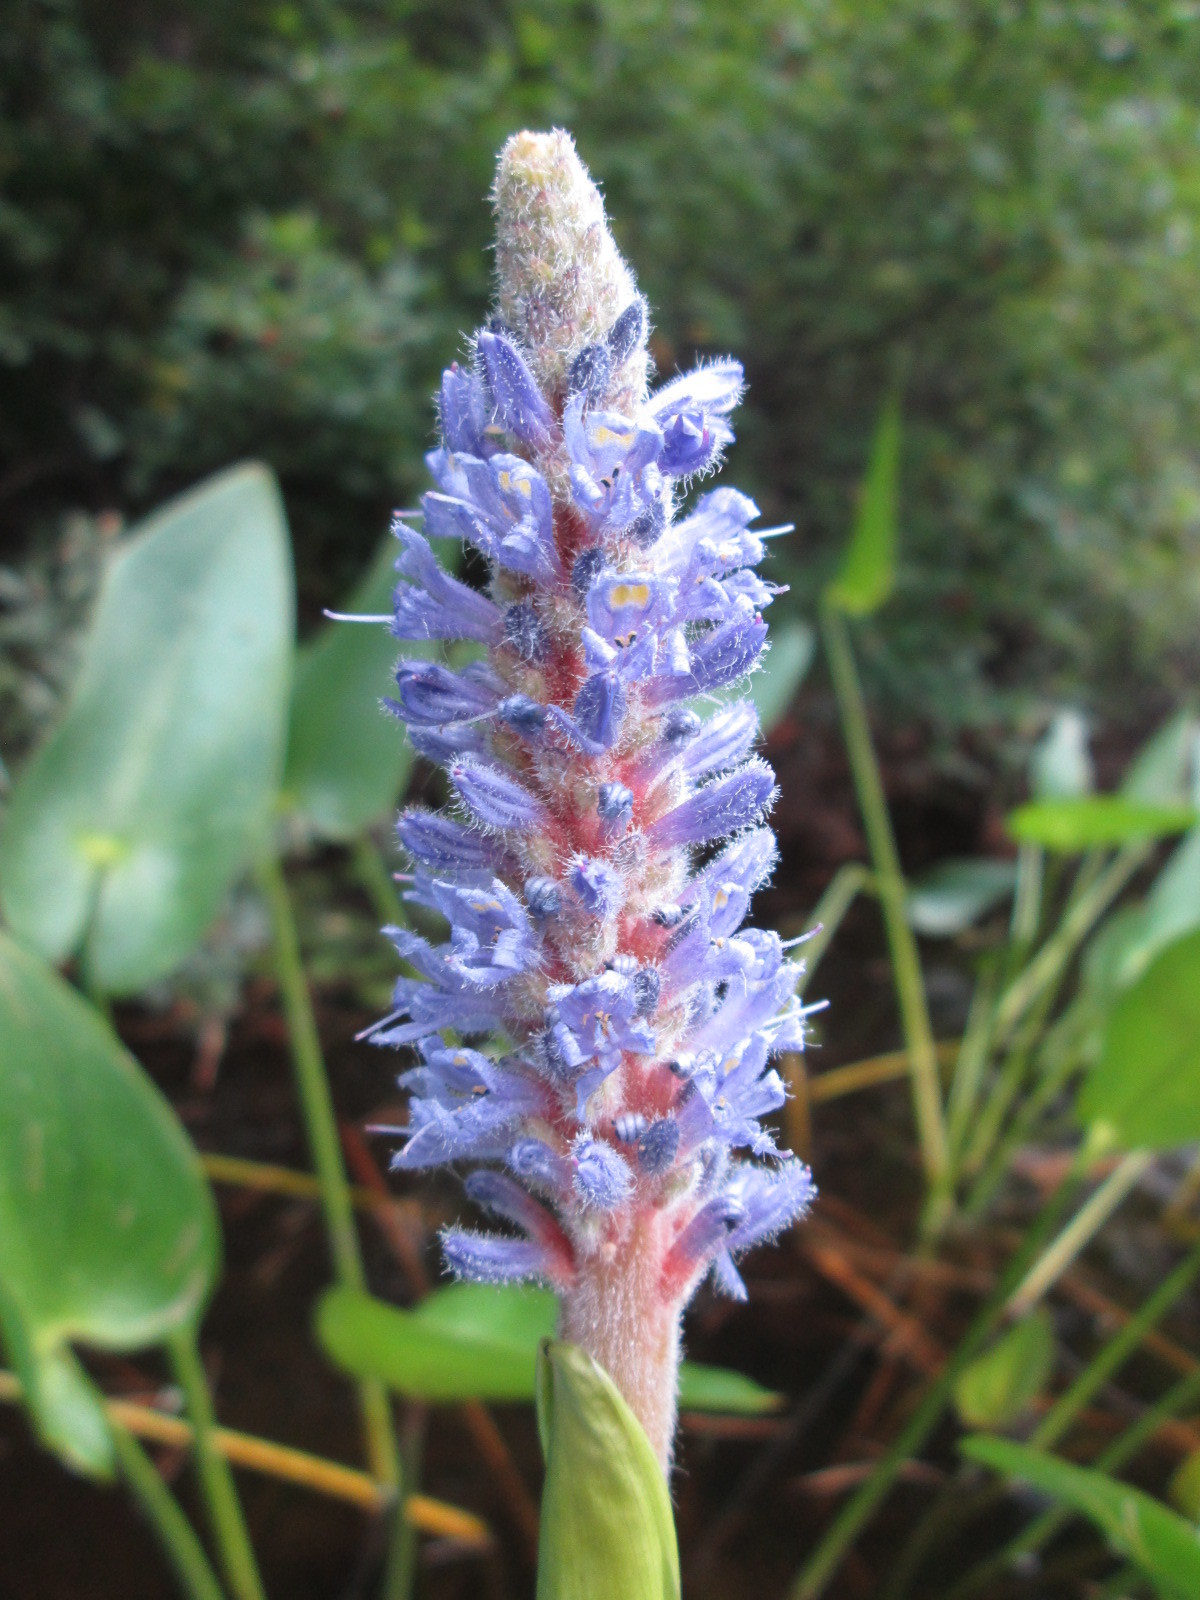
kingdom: Plantae
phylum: Tracheophyta
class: Liliopsida
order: Commelinales
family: Pontederiaceae
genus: Pontederia
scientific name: Pontederia cordata
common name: Pickerelweed
